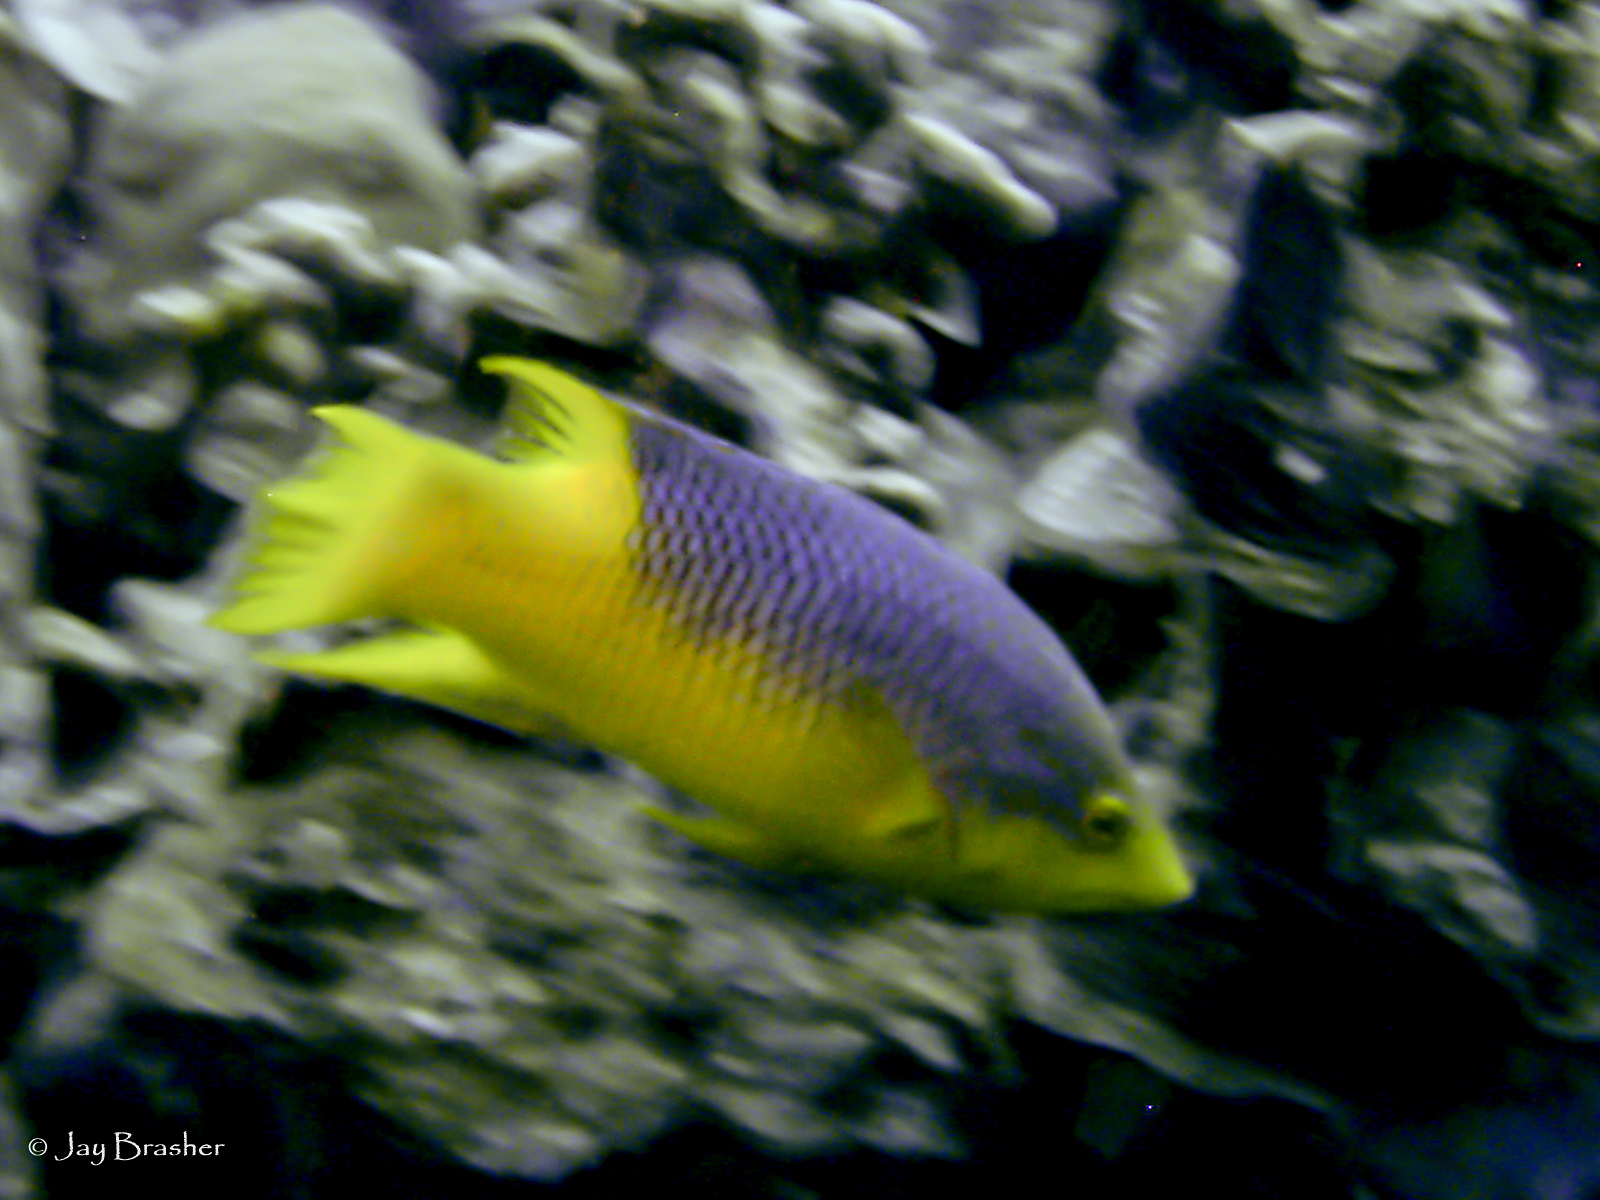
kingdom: Animalia
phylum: Chordata
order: Perciformes
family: Labridae
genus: Bodianus
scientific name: Bodianus rufus
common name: Spanish hogfish
